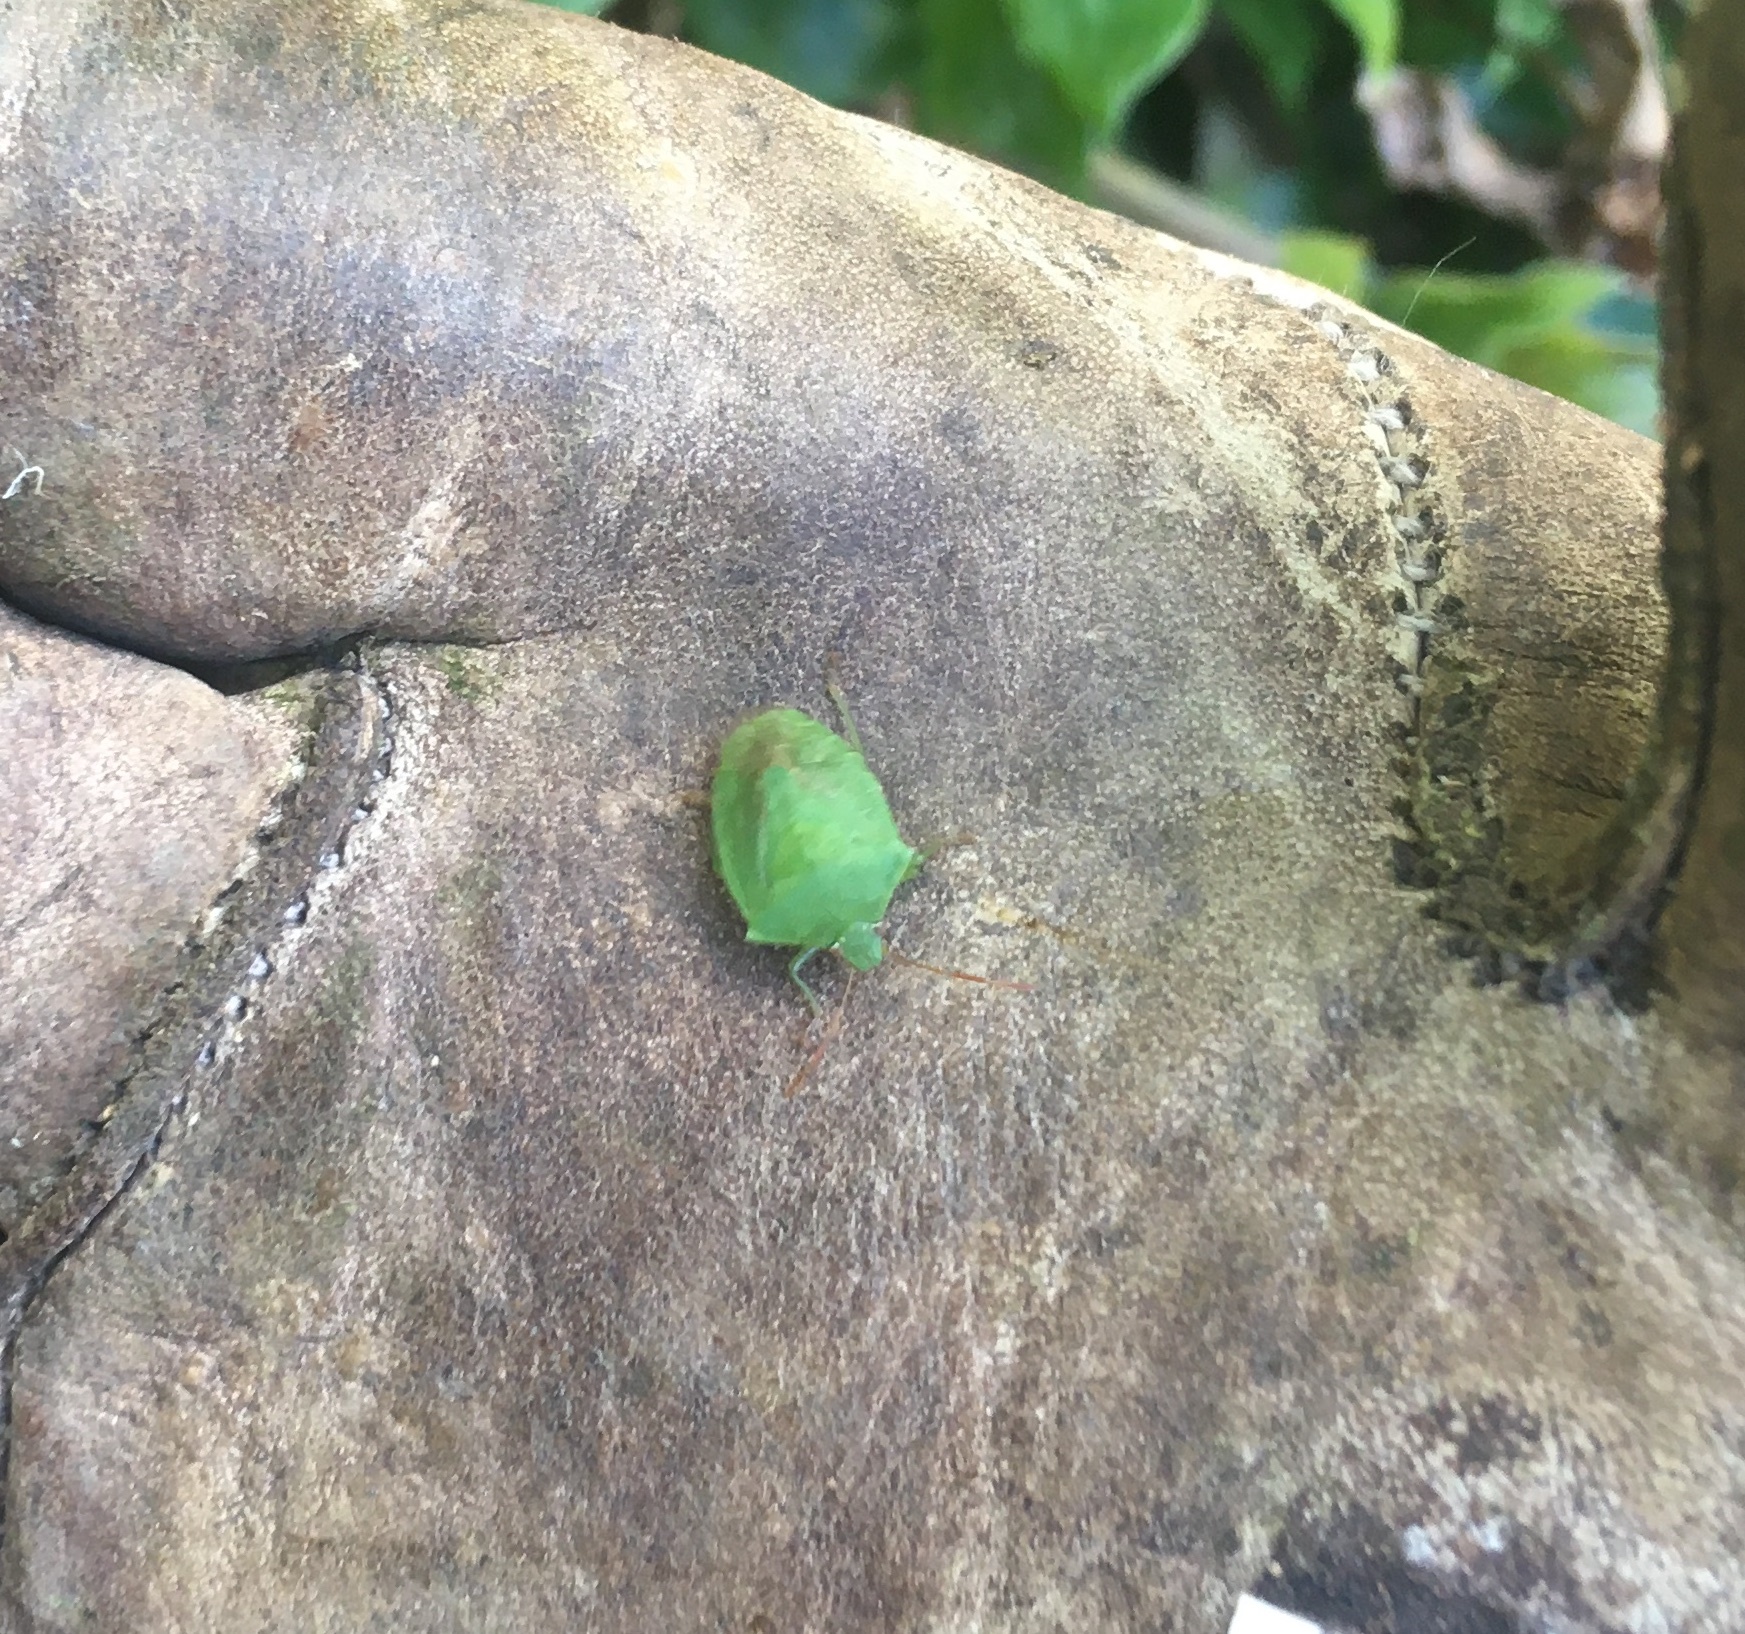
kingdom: Animalia
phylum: Arthropoda
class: Insecta
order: Hemiptera
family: Pentatomidae
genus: Cuspicona
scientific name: Cuspicona simplex
